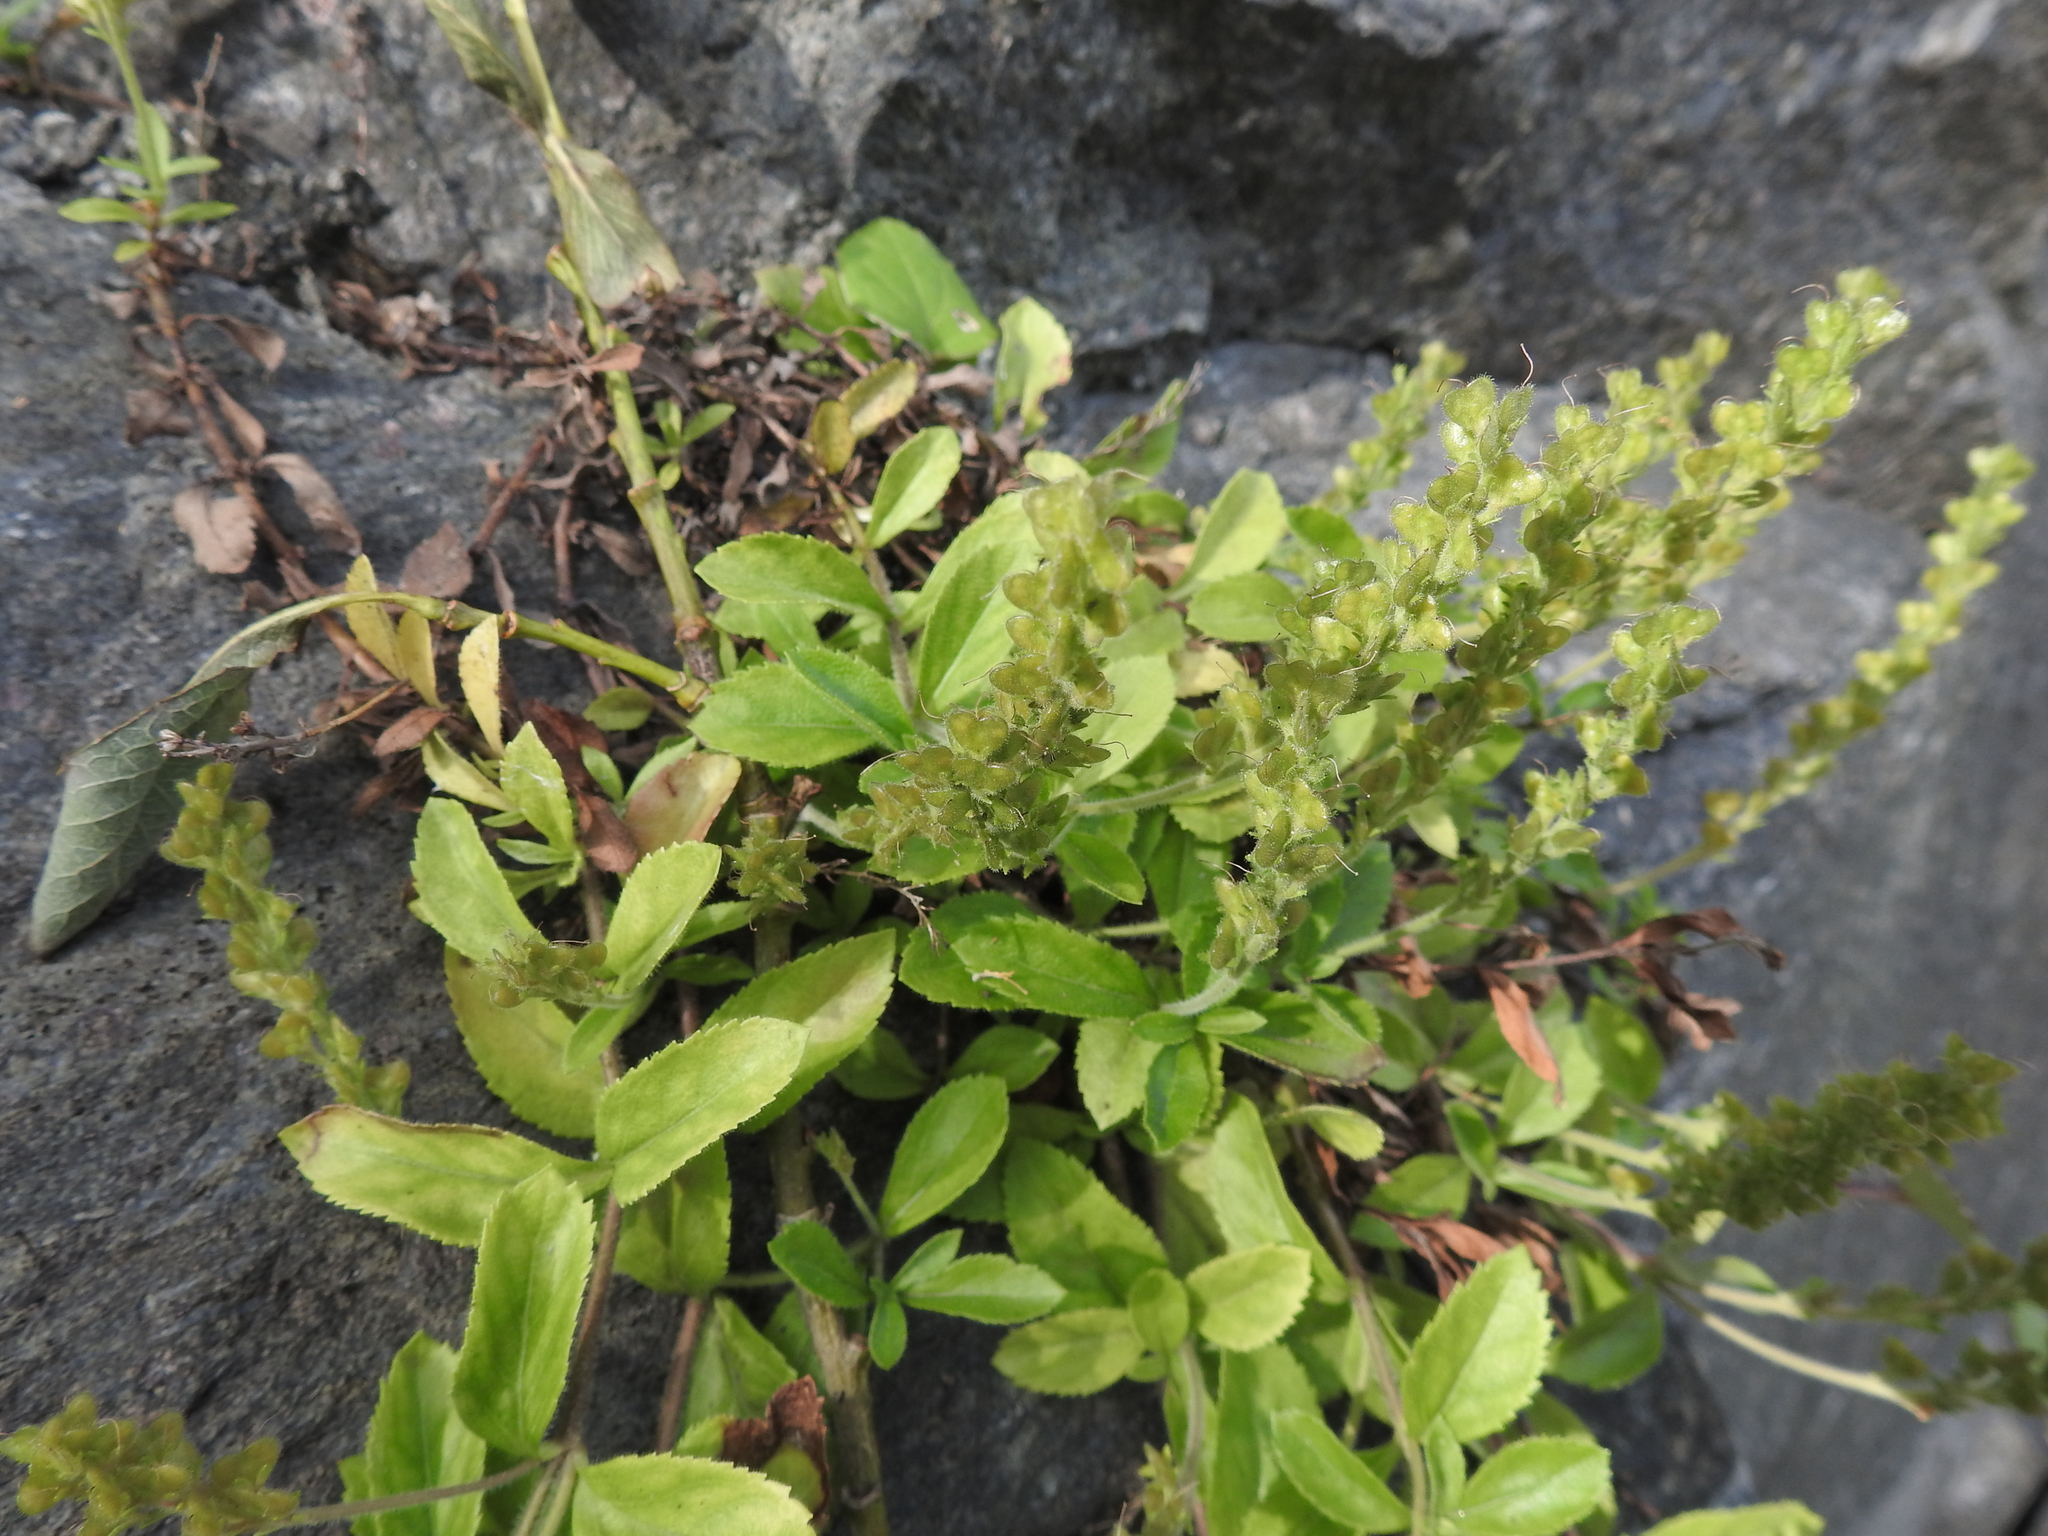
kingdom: Plantae
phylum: Tracheophyta
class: Magnoliopsida
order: Lamiales
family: Plantaginaceae
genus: Veronica
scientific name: Veronica officinalis
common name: Common speedwell
